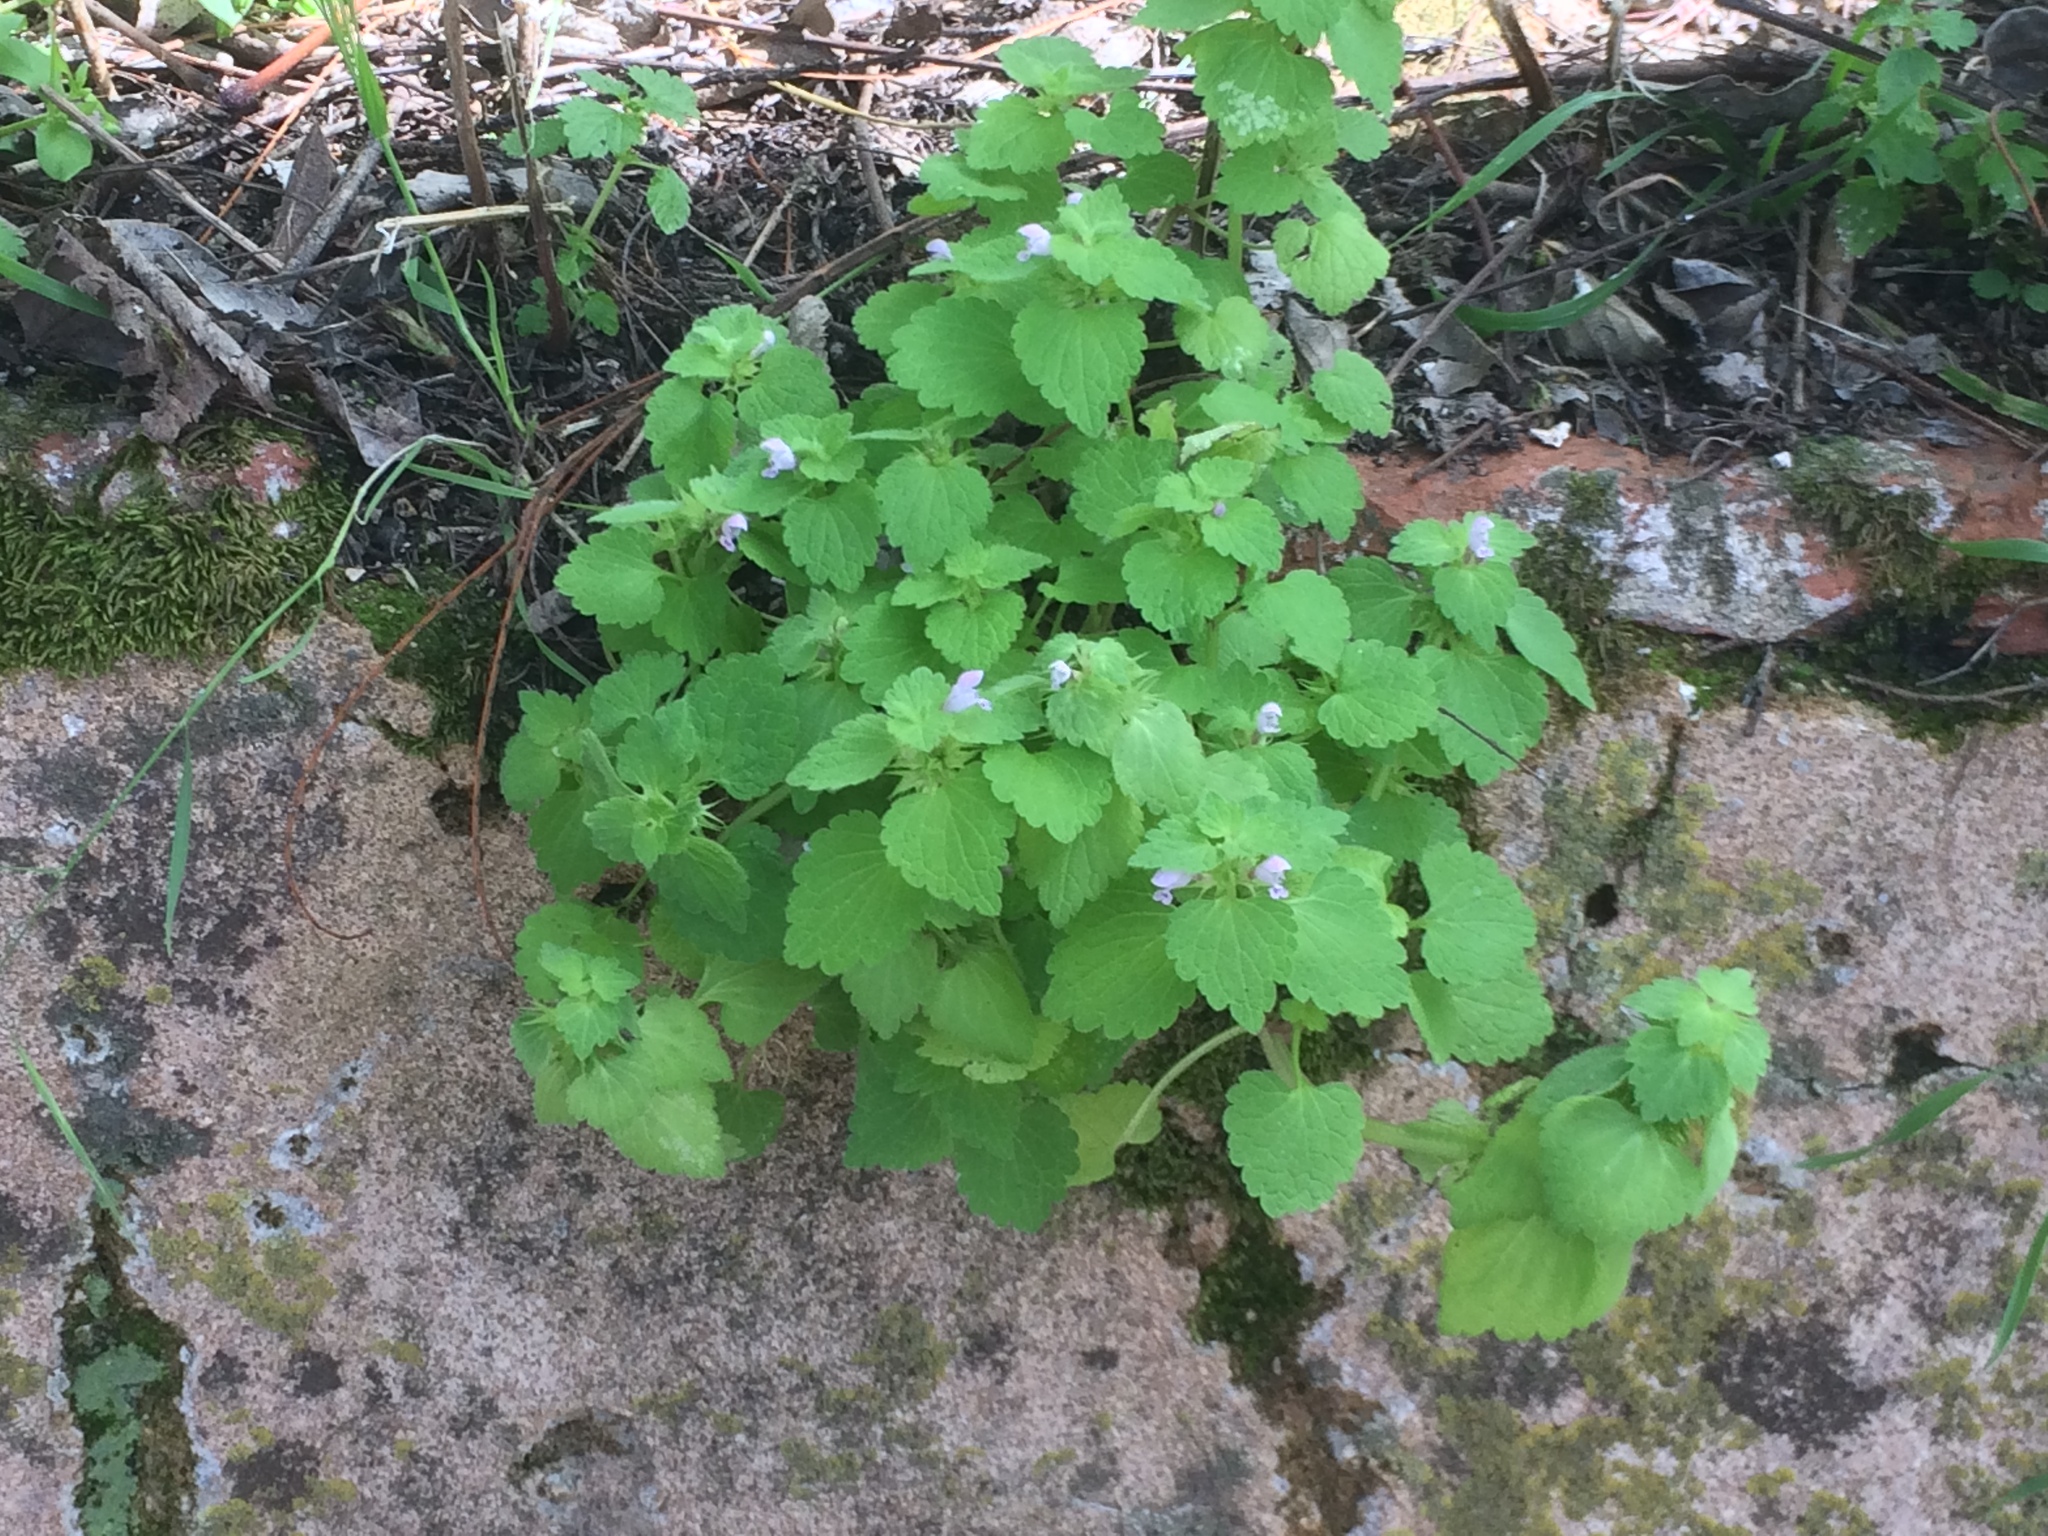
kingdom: Plantae
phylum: Tracheophyta
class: Magnoliopsida
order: Lamiales
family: Lamiaceae
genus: Lamium
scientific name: Lamium purpureum
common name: Red dead-nettle
